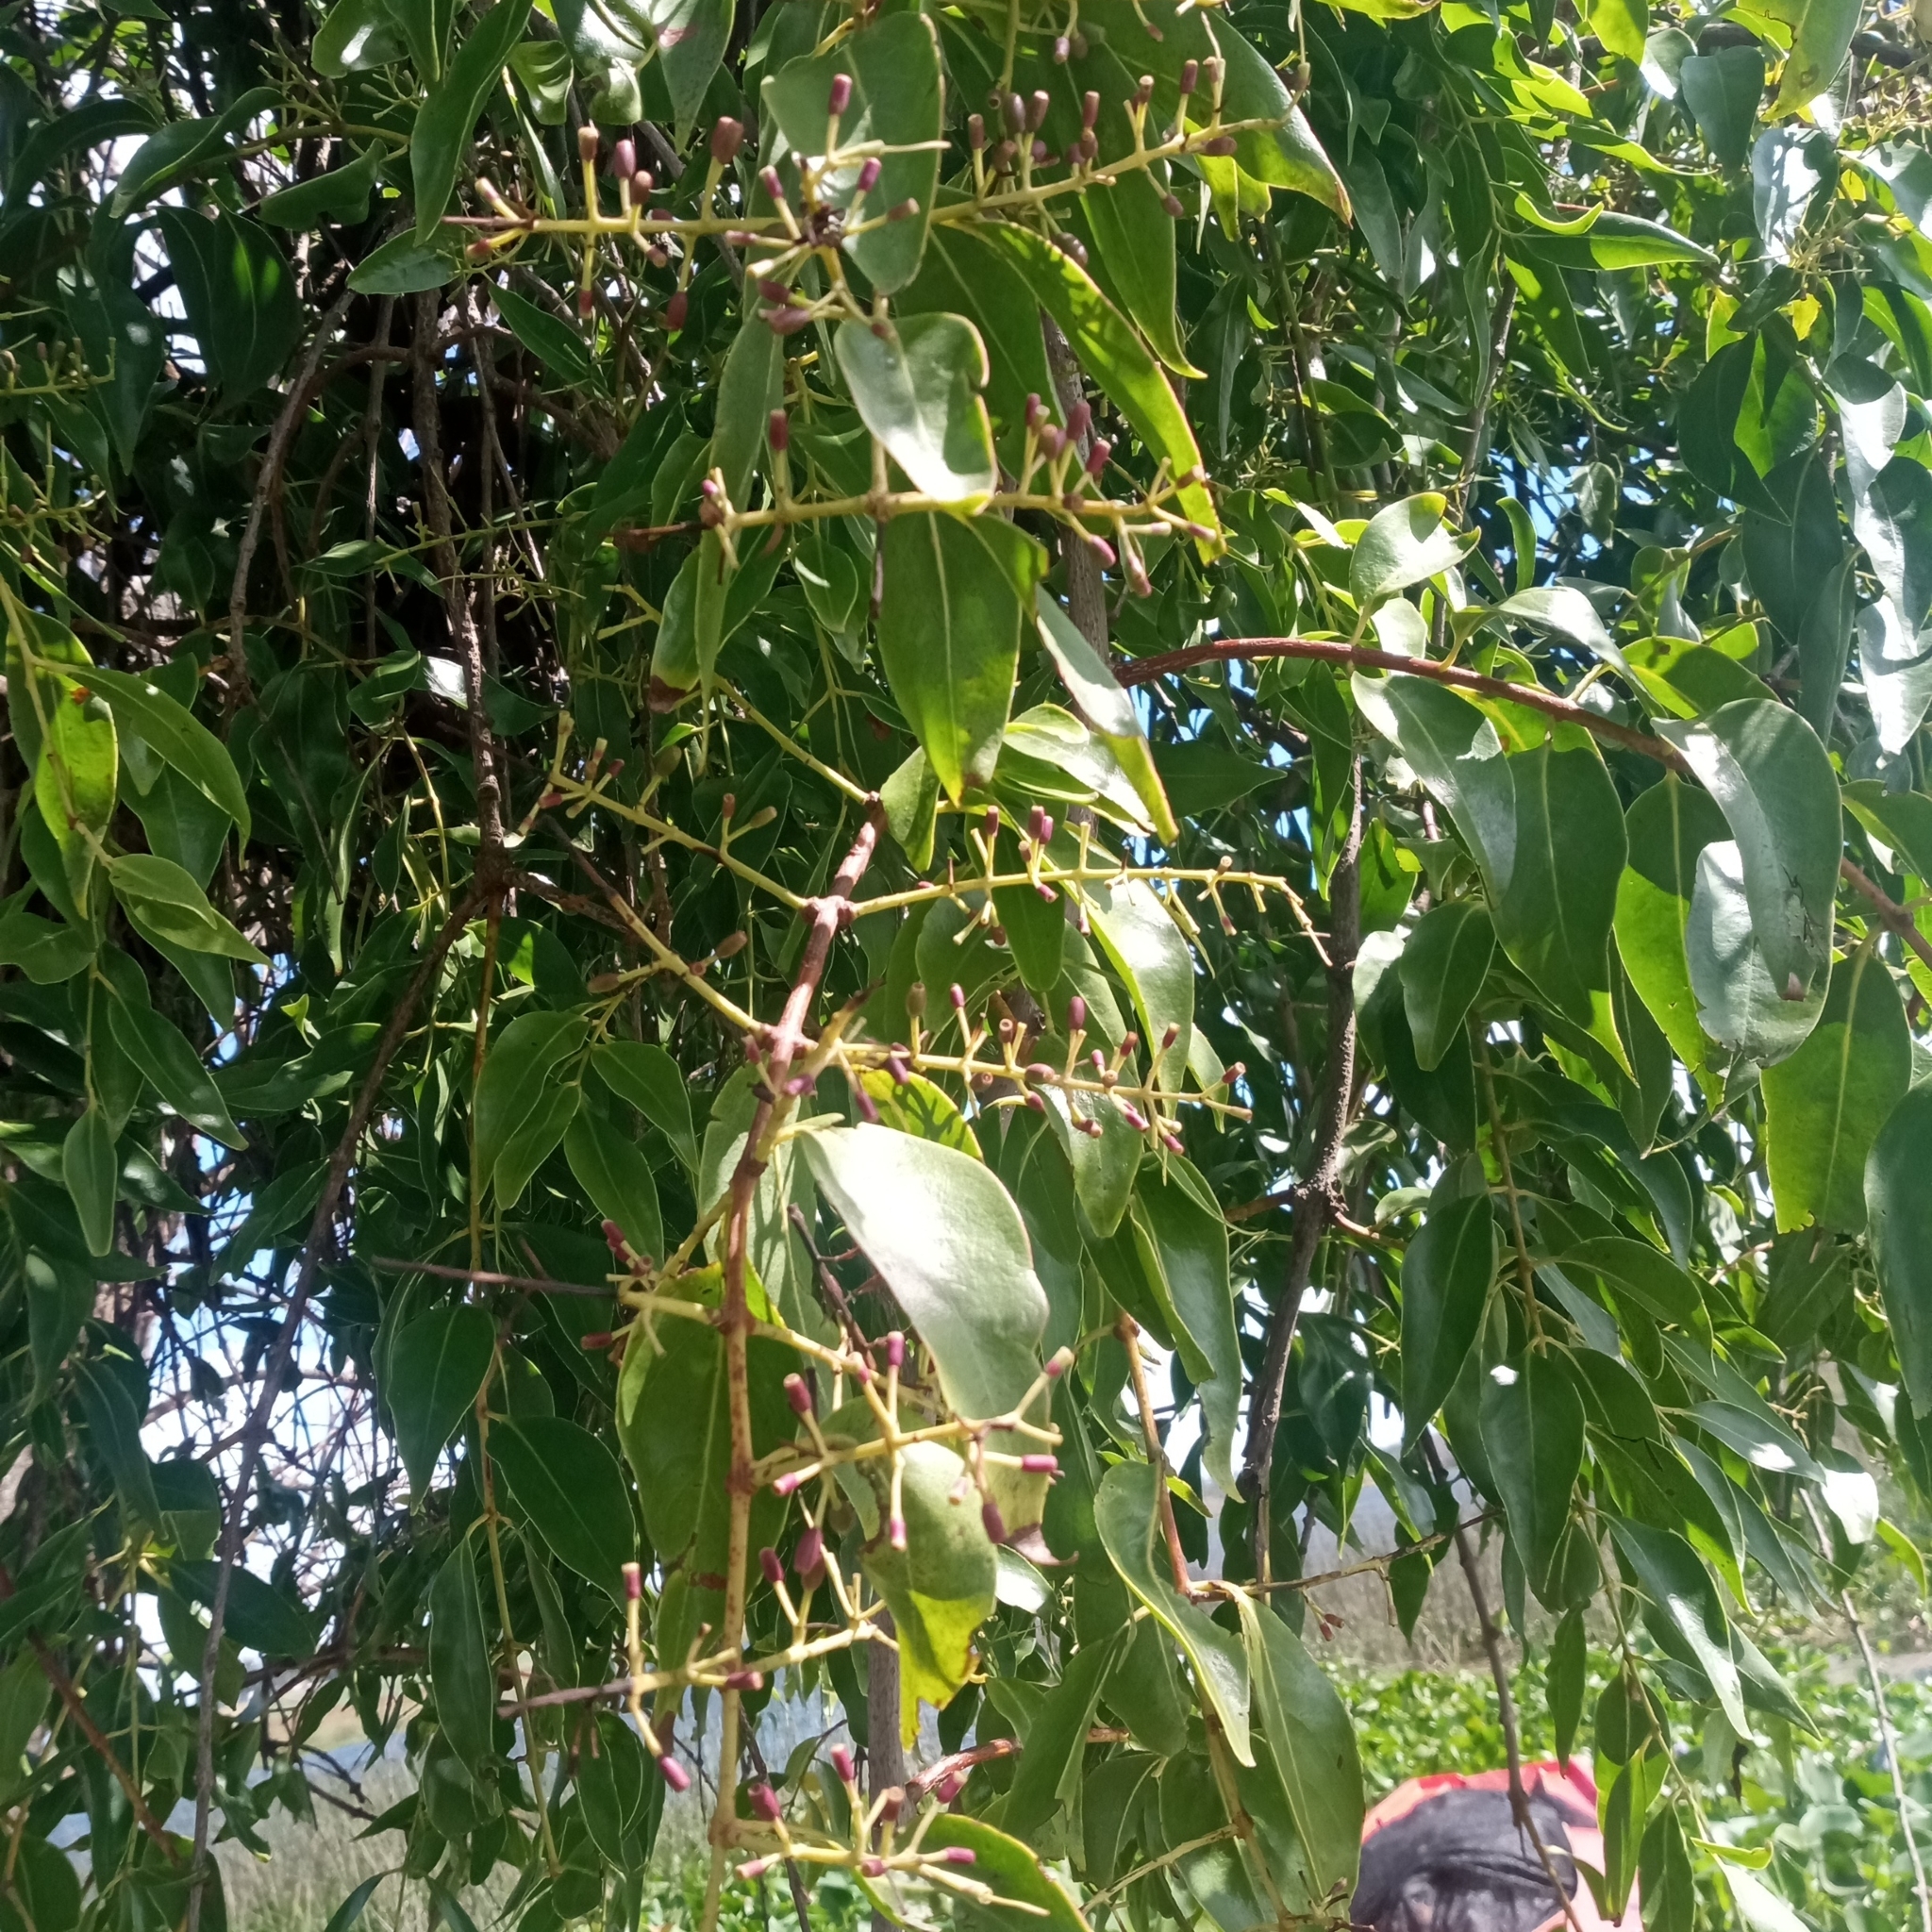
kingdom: Plantae
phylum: Tracheophyta
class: Magnoliopsida
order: Santalales
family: Loranthaceae
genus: Tripodanthus
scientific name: Tripodanthus acutifolius
